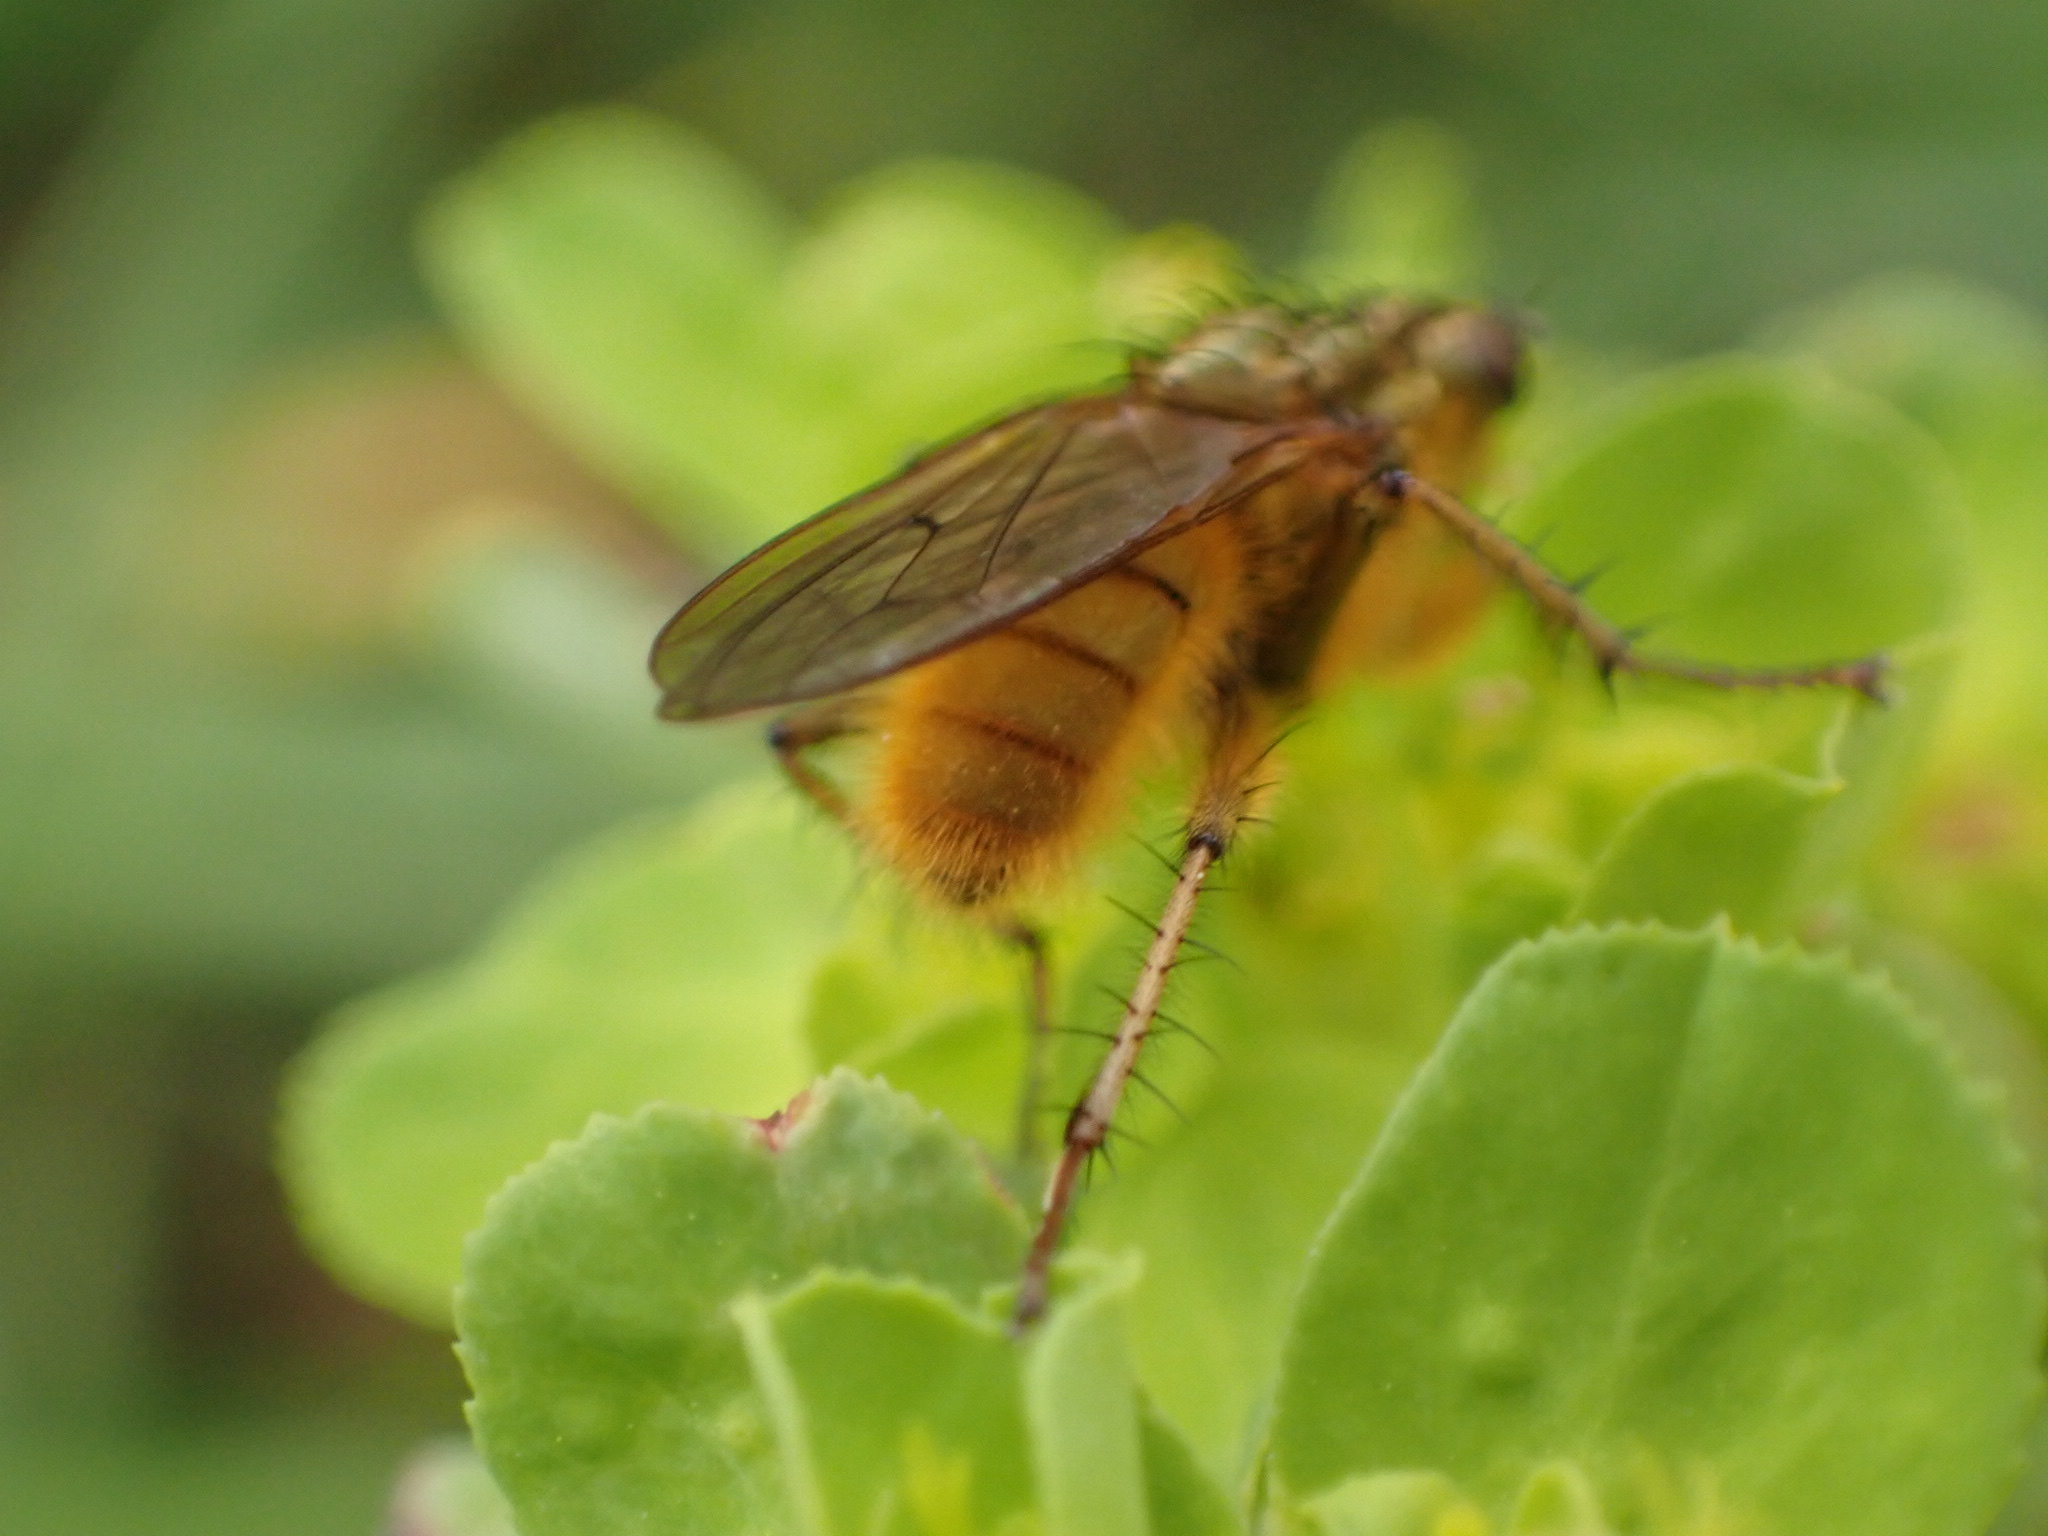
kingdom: Animalia
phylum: Arthropoda
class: Insecta
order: Diptera
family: Scathophagidae
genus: Scathophaga
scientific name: Scathophaga stercoraria
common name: Yellow dung fly
